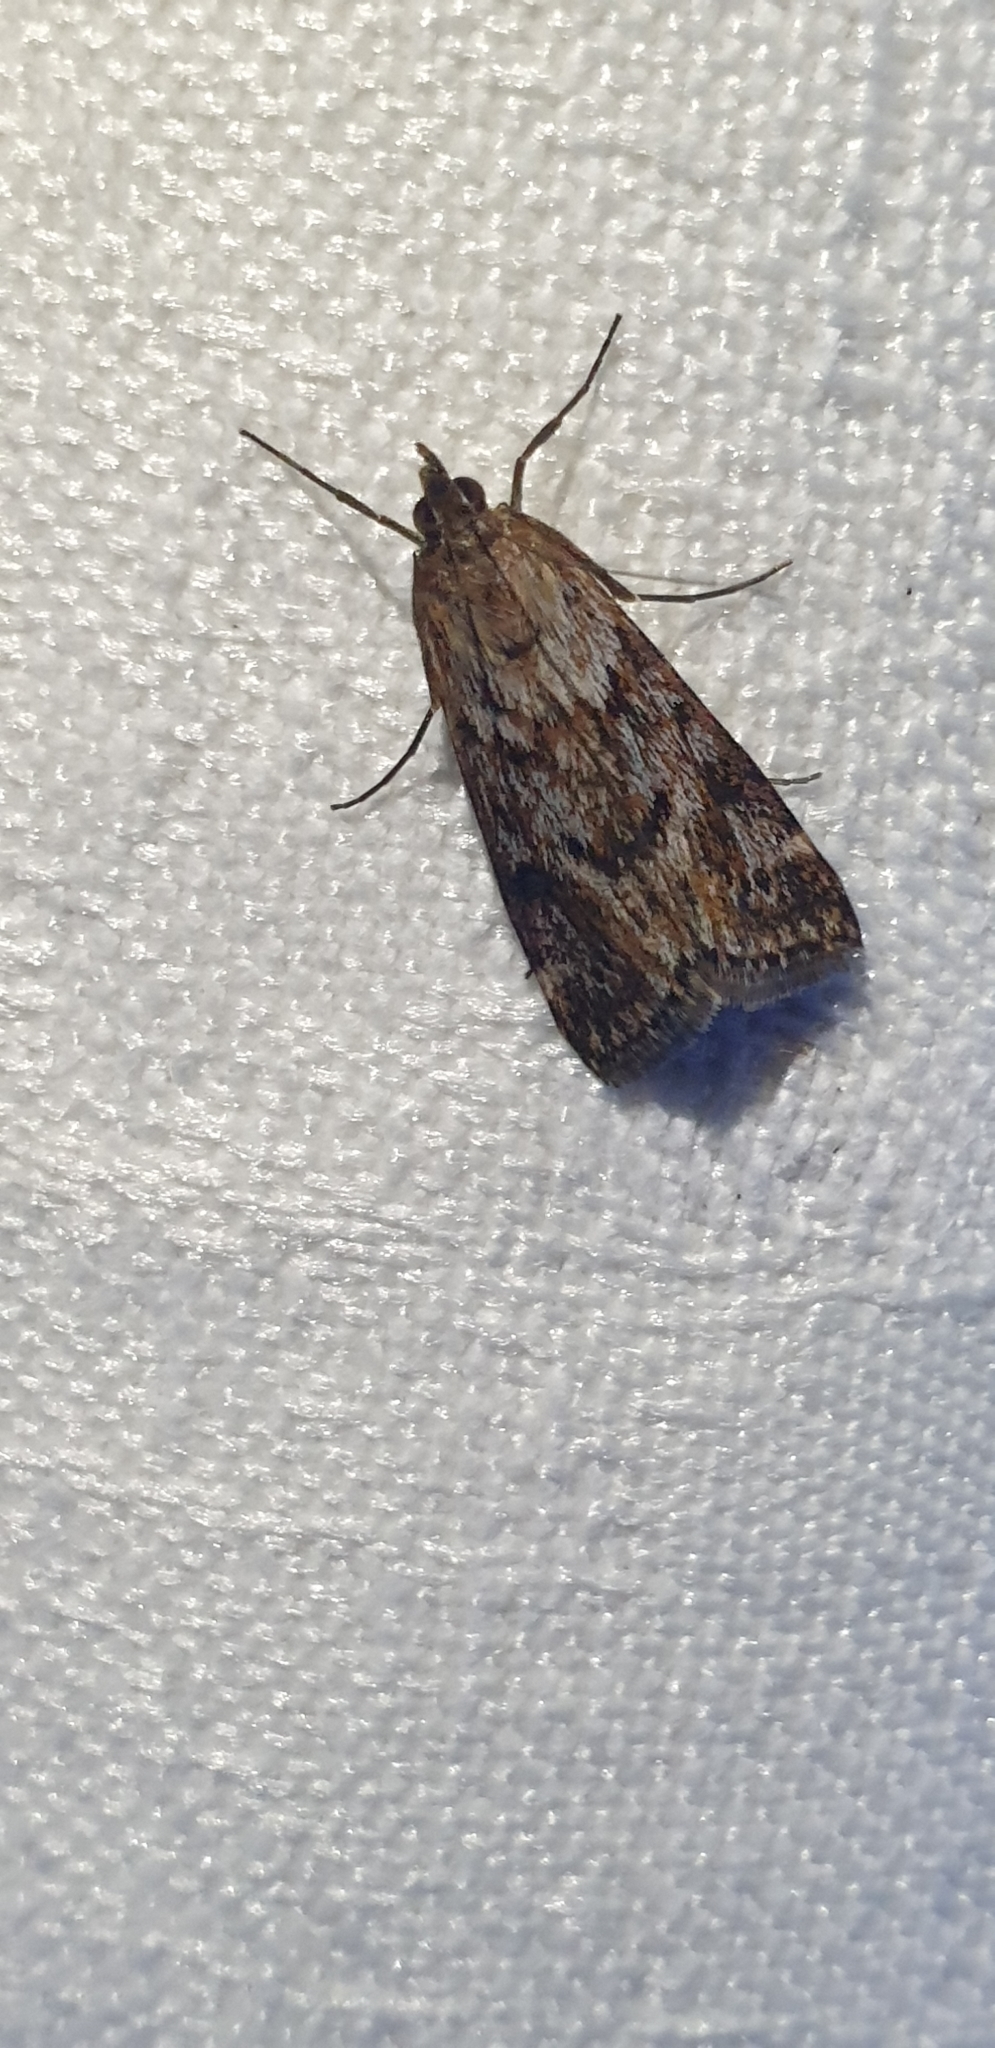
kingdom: Animalia
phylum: Arthropoda
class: Insecta
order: Lepidoptera
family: Crambidae
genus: Achyra
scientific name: Achyra affinitalis
